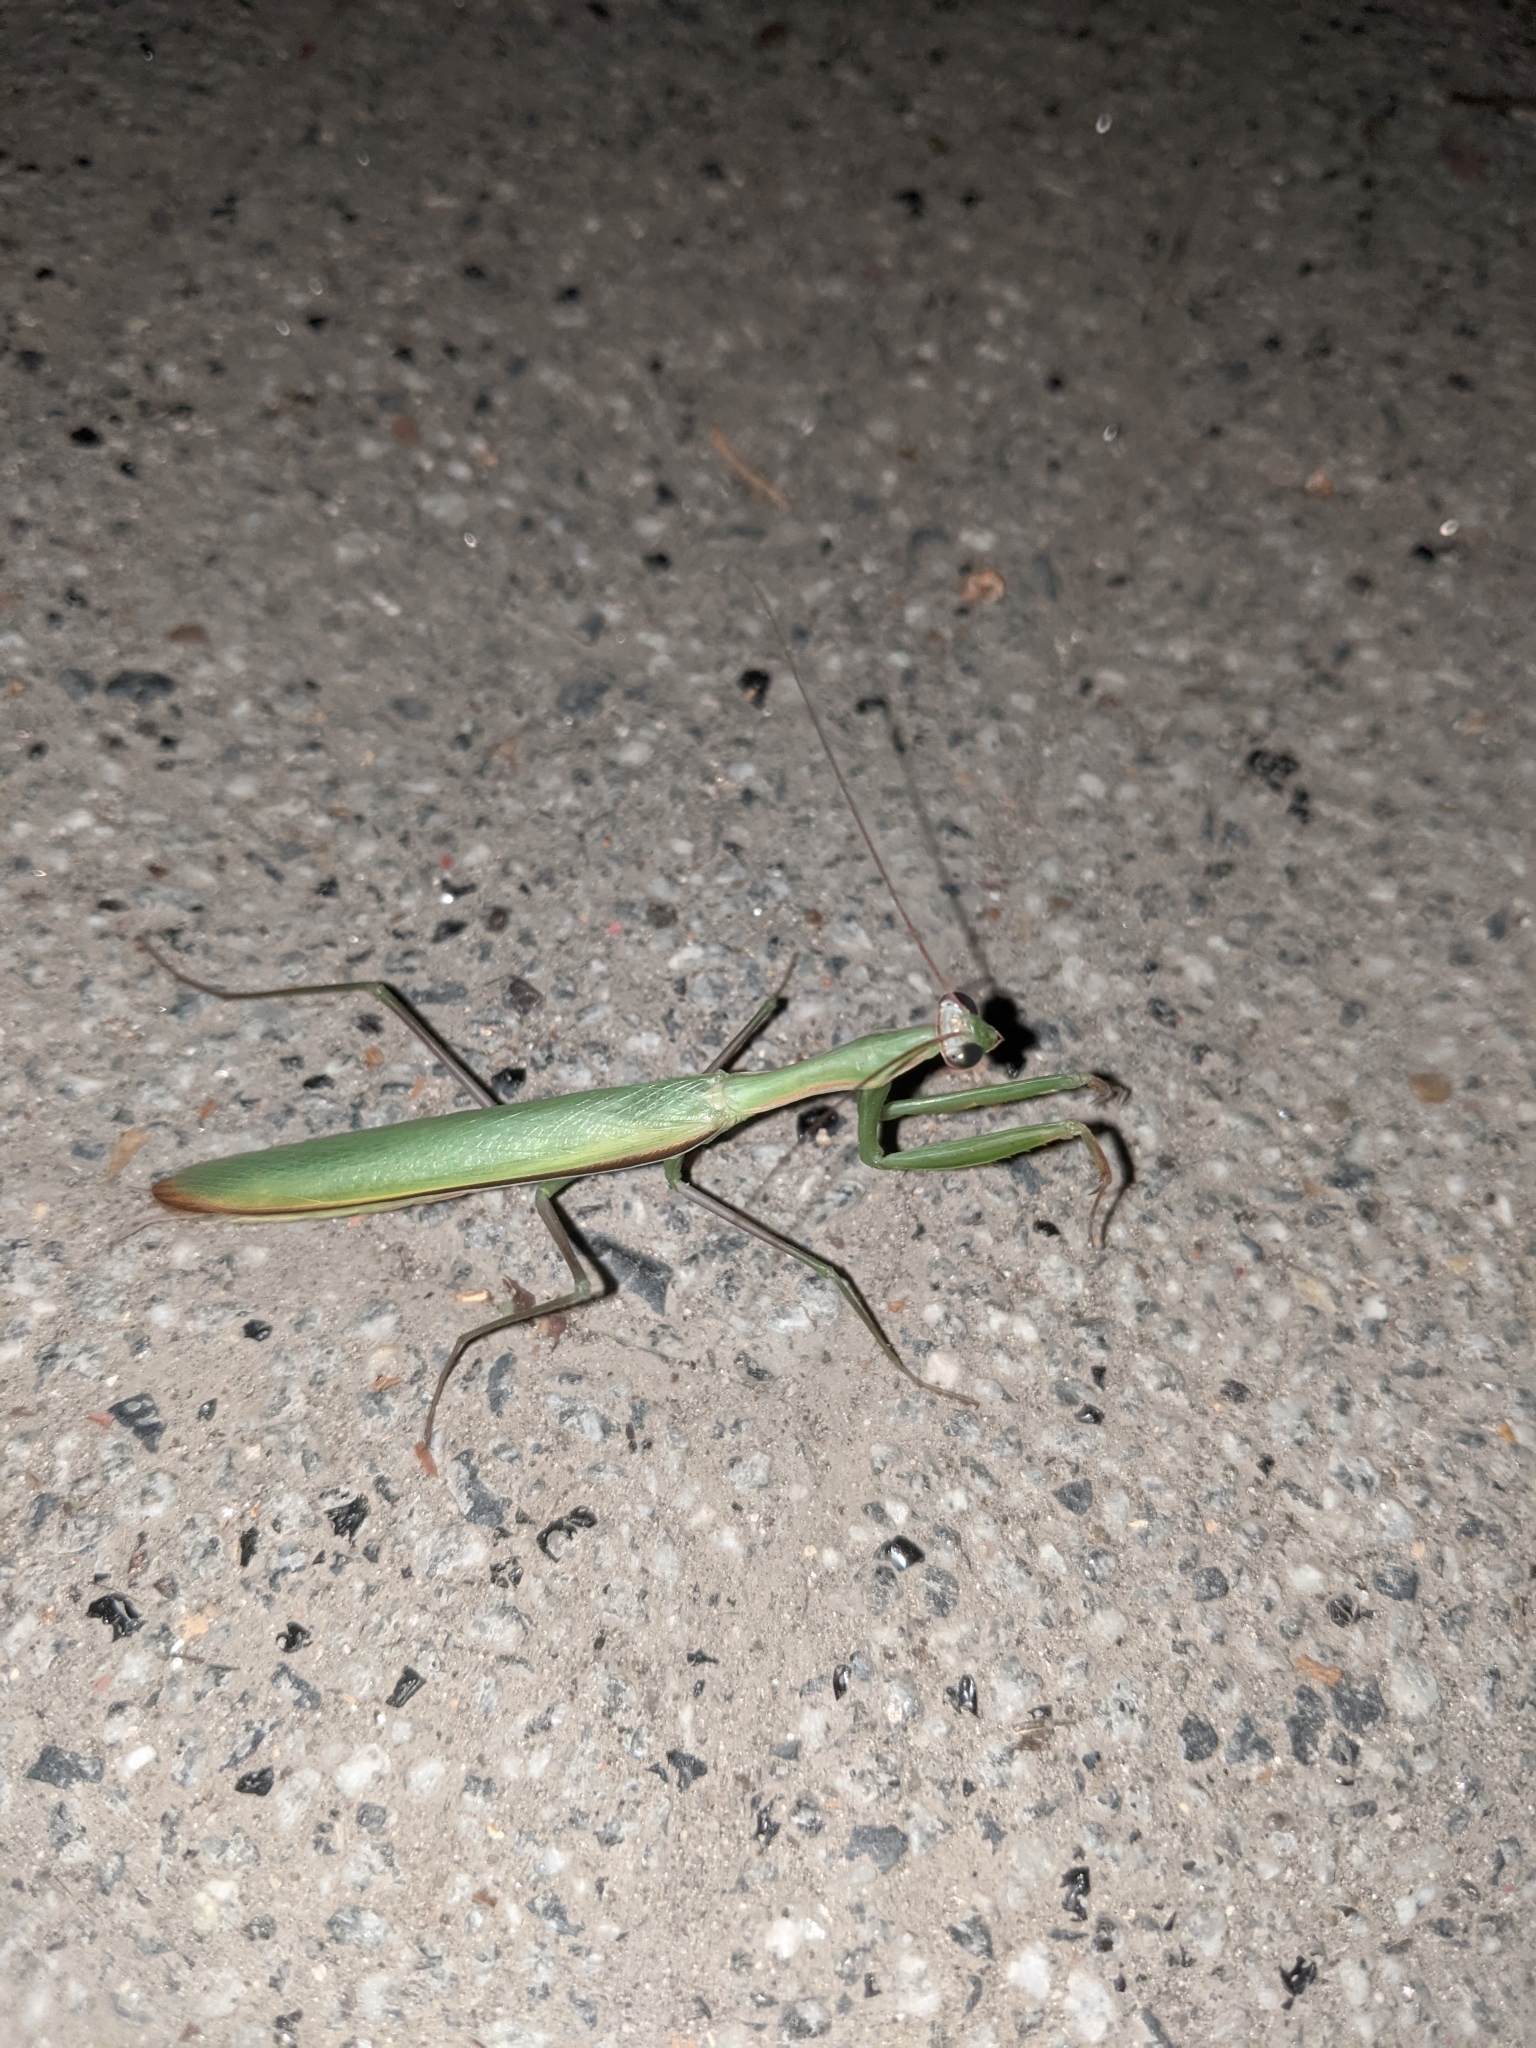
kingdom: Animalia
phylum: Arthropoda
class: Insecta
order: Mantodea
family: Mantidae
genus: Mantis
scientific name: Mantis religiosa
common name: Praying mantis
